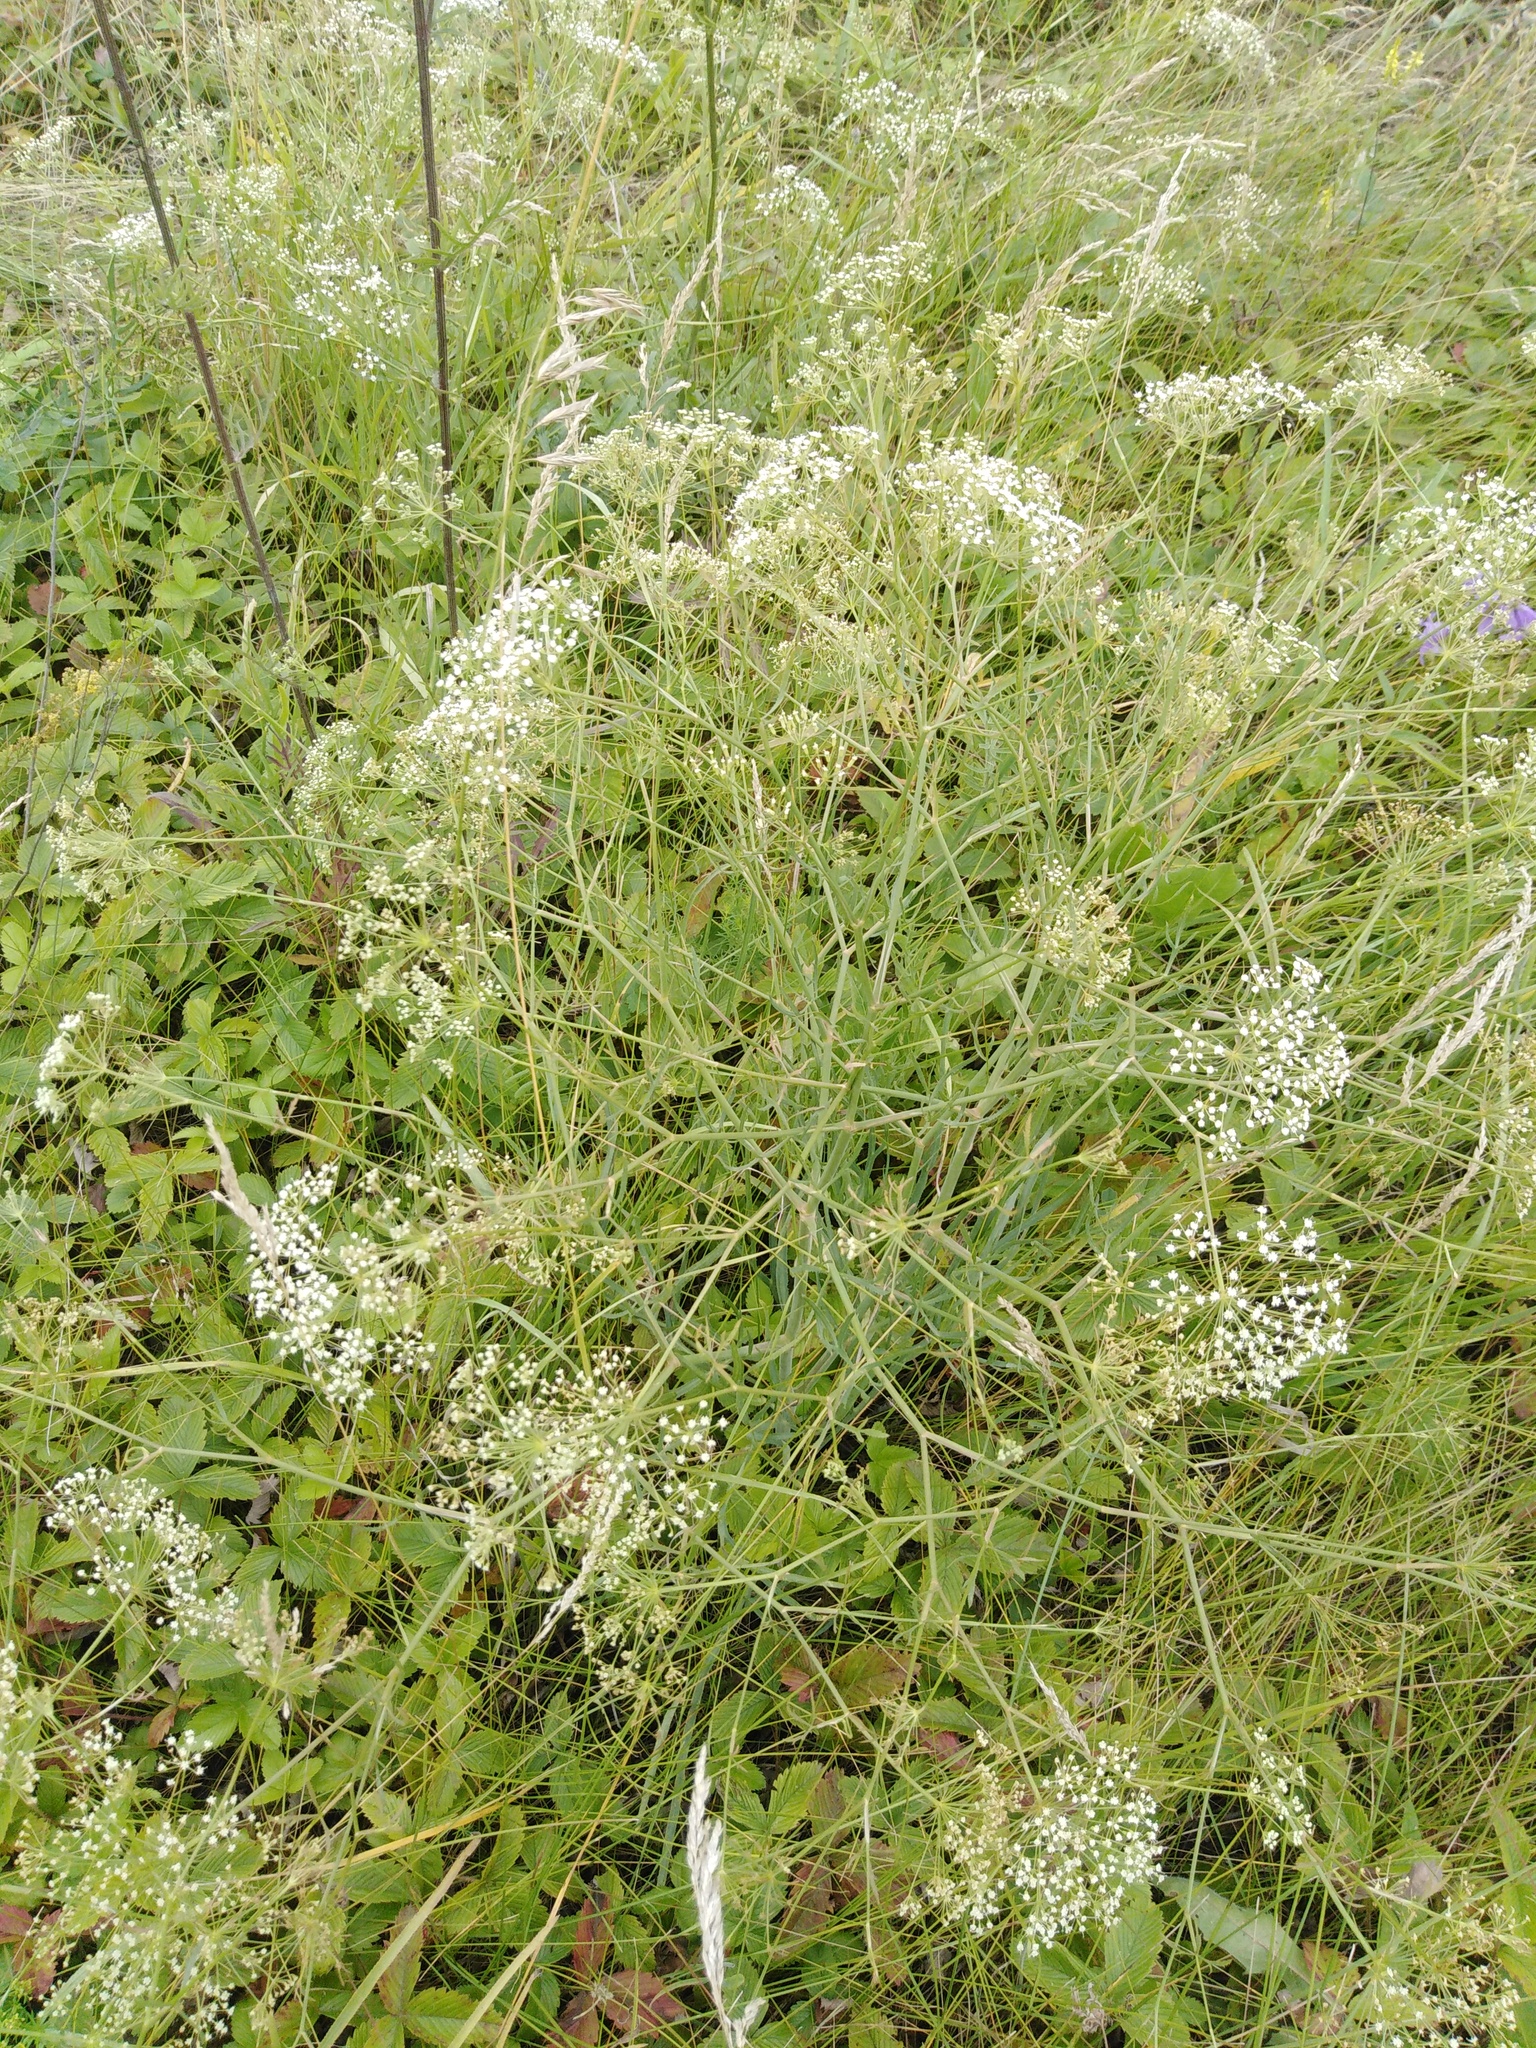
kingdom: Plantae
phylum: Tracheophyta
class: Magnoliopsida
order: Apiales
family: Apiaceae
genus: Falcaria
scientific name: Falcaria vulgaris
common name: Longleaf
